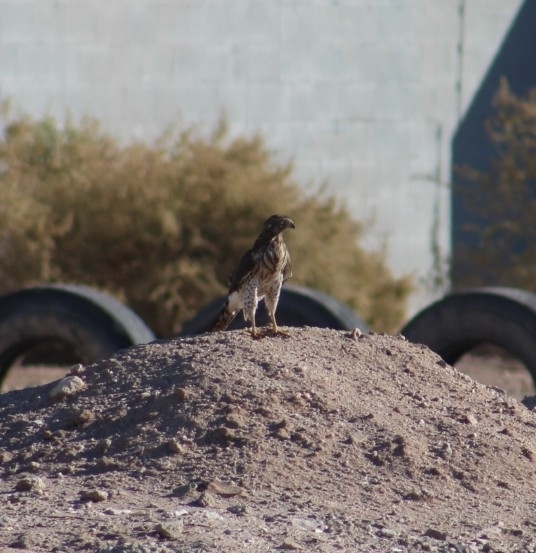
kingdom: Animalia
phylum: Chordata
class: Aves
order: Accipitriformes
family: Accipitridae
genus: Accipiter
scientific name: Accipiter cooperii
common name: Cooper's hawk
